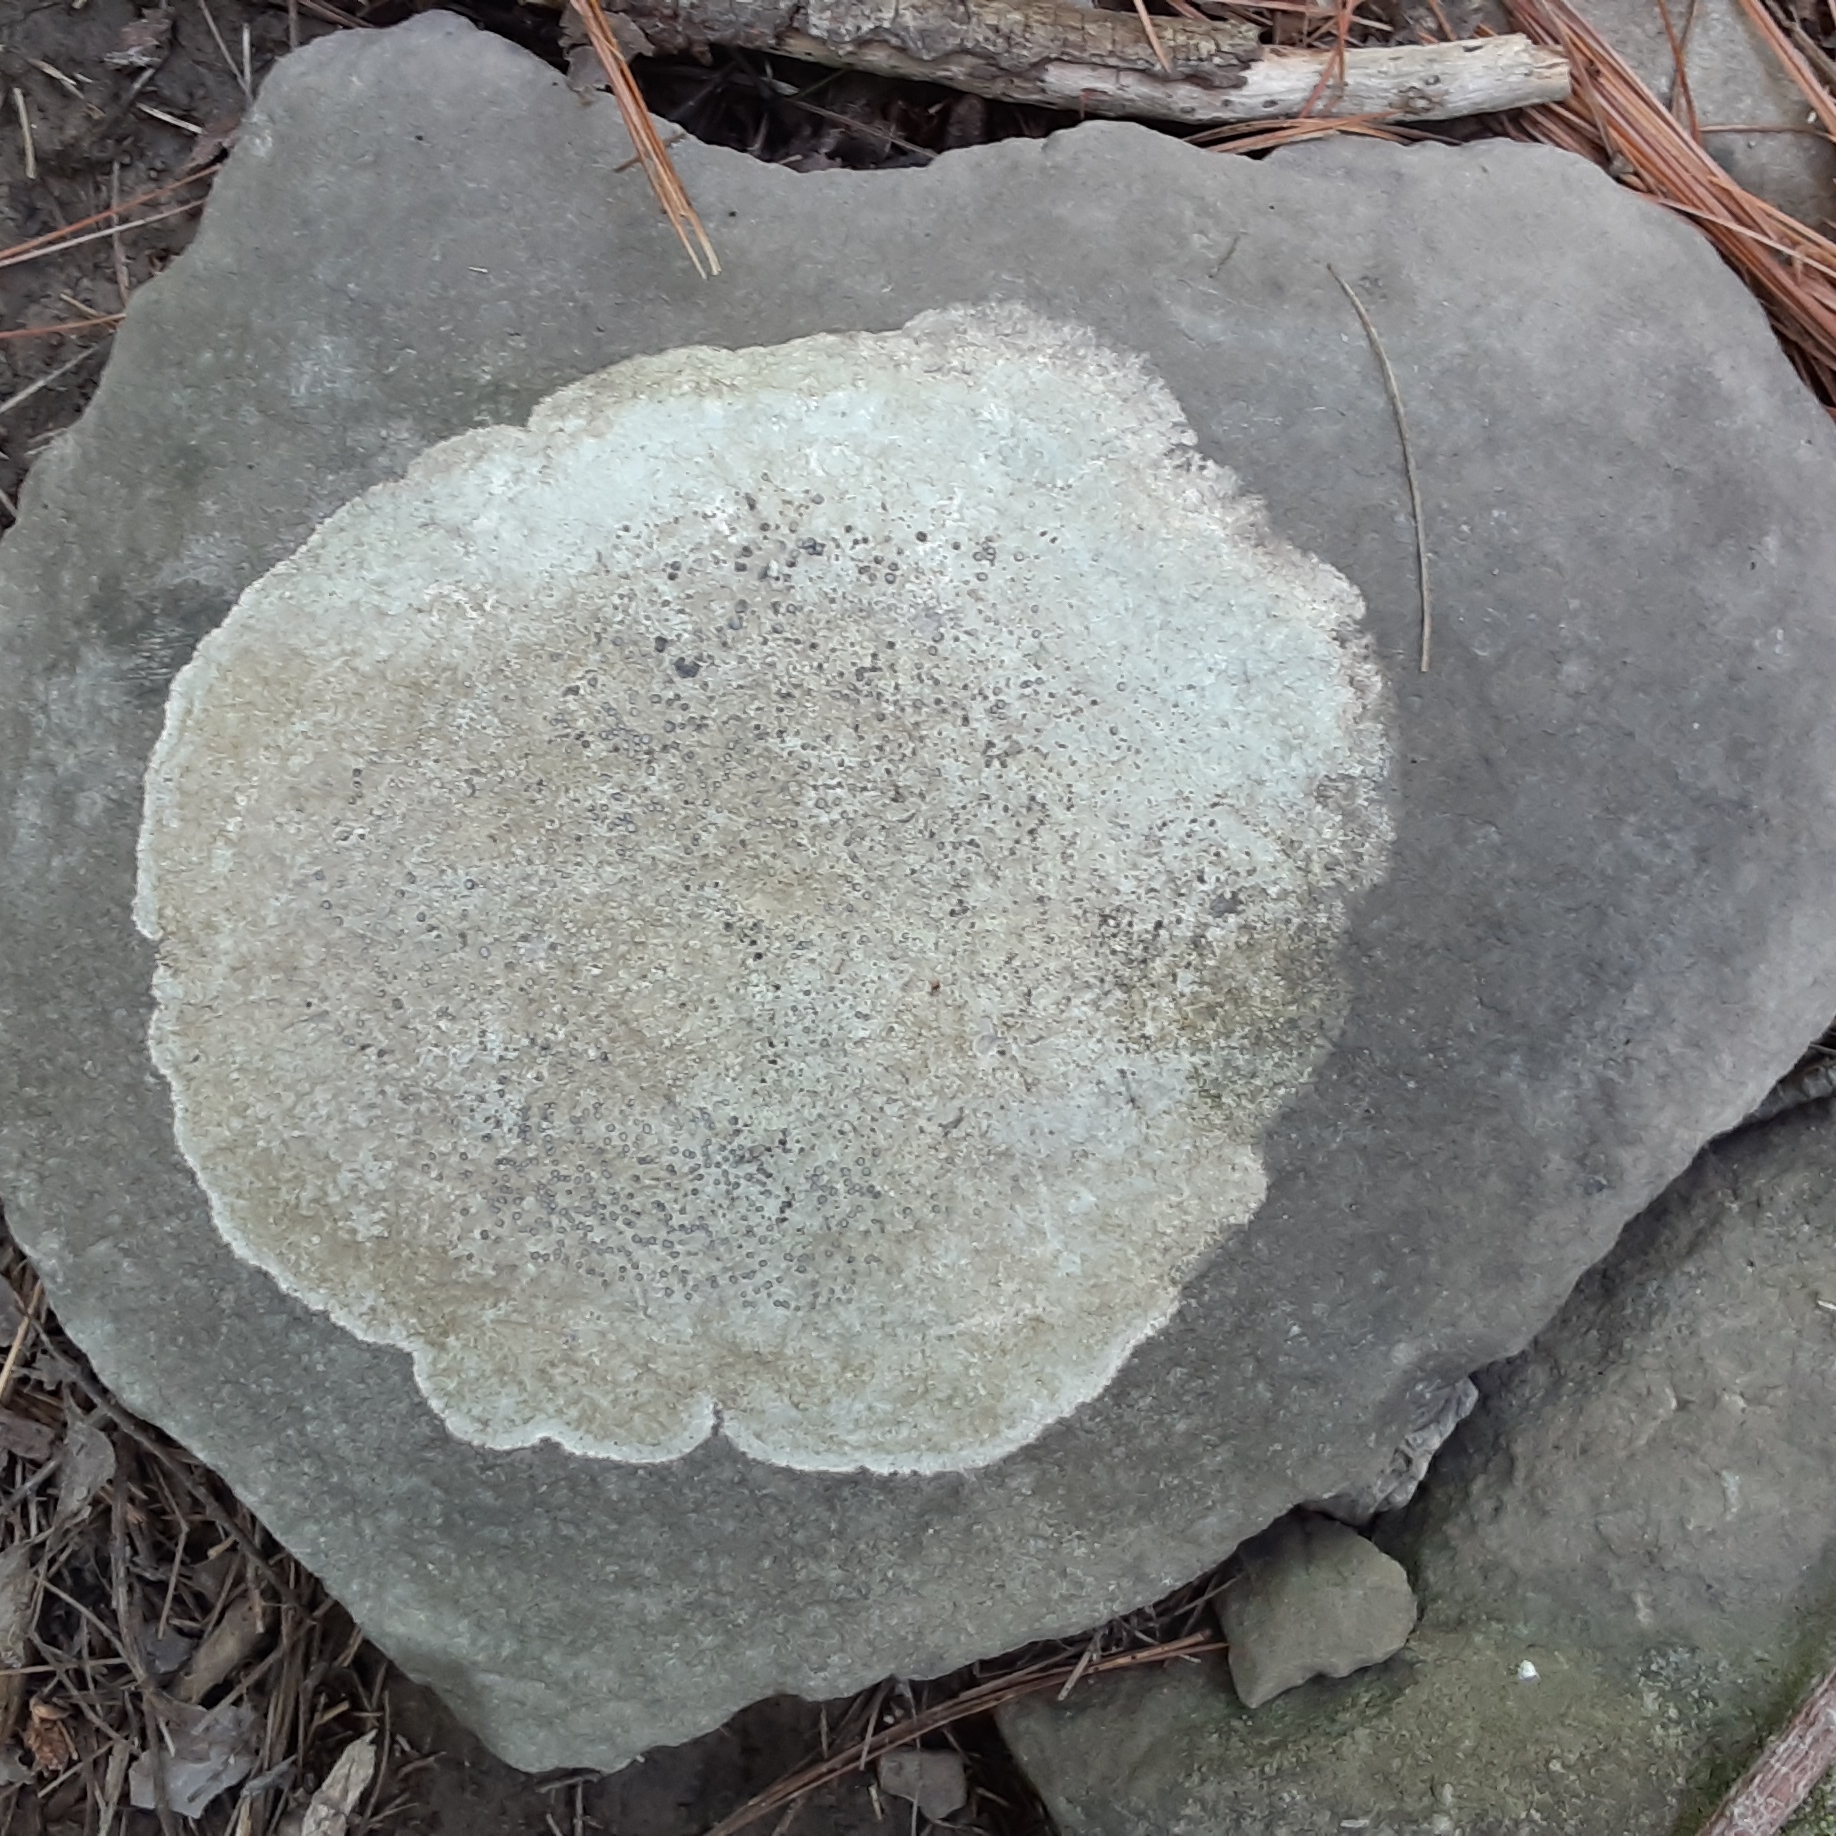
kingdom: Fungi
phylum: Ascomycota
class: Lecanoromycetes
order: Lecideales
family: Lecideaceae
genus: Porpidia
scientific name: Porpidia albocaerulescens
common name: Smokey-eyed boulder lichen
